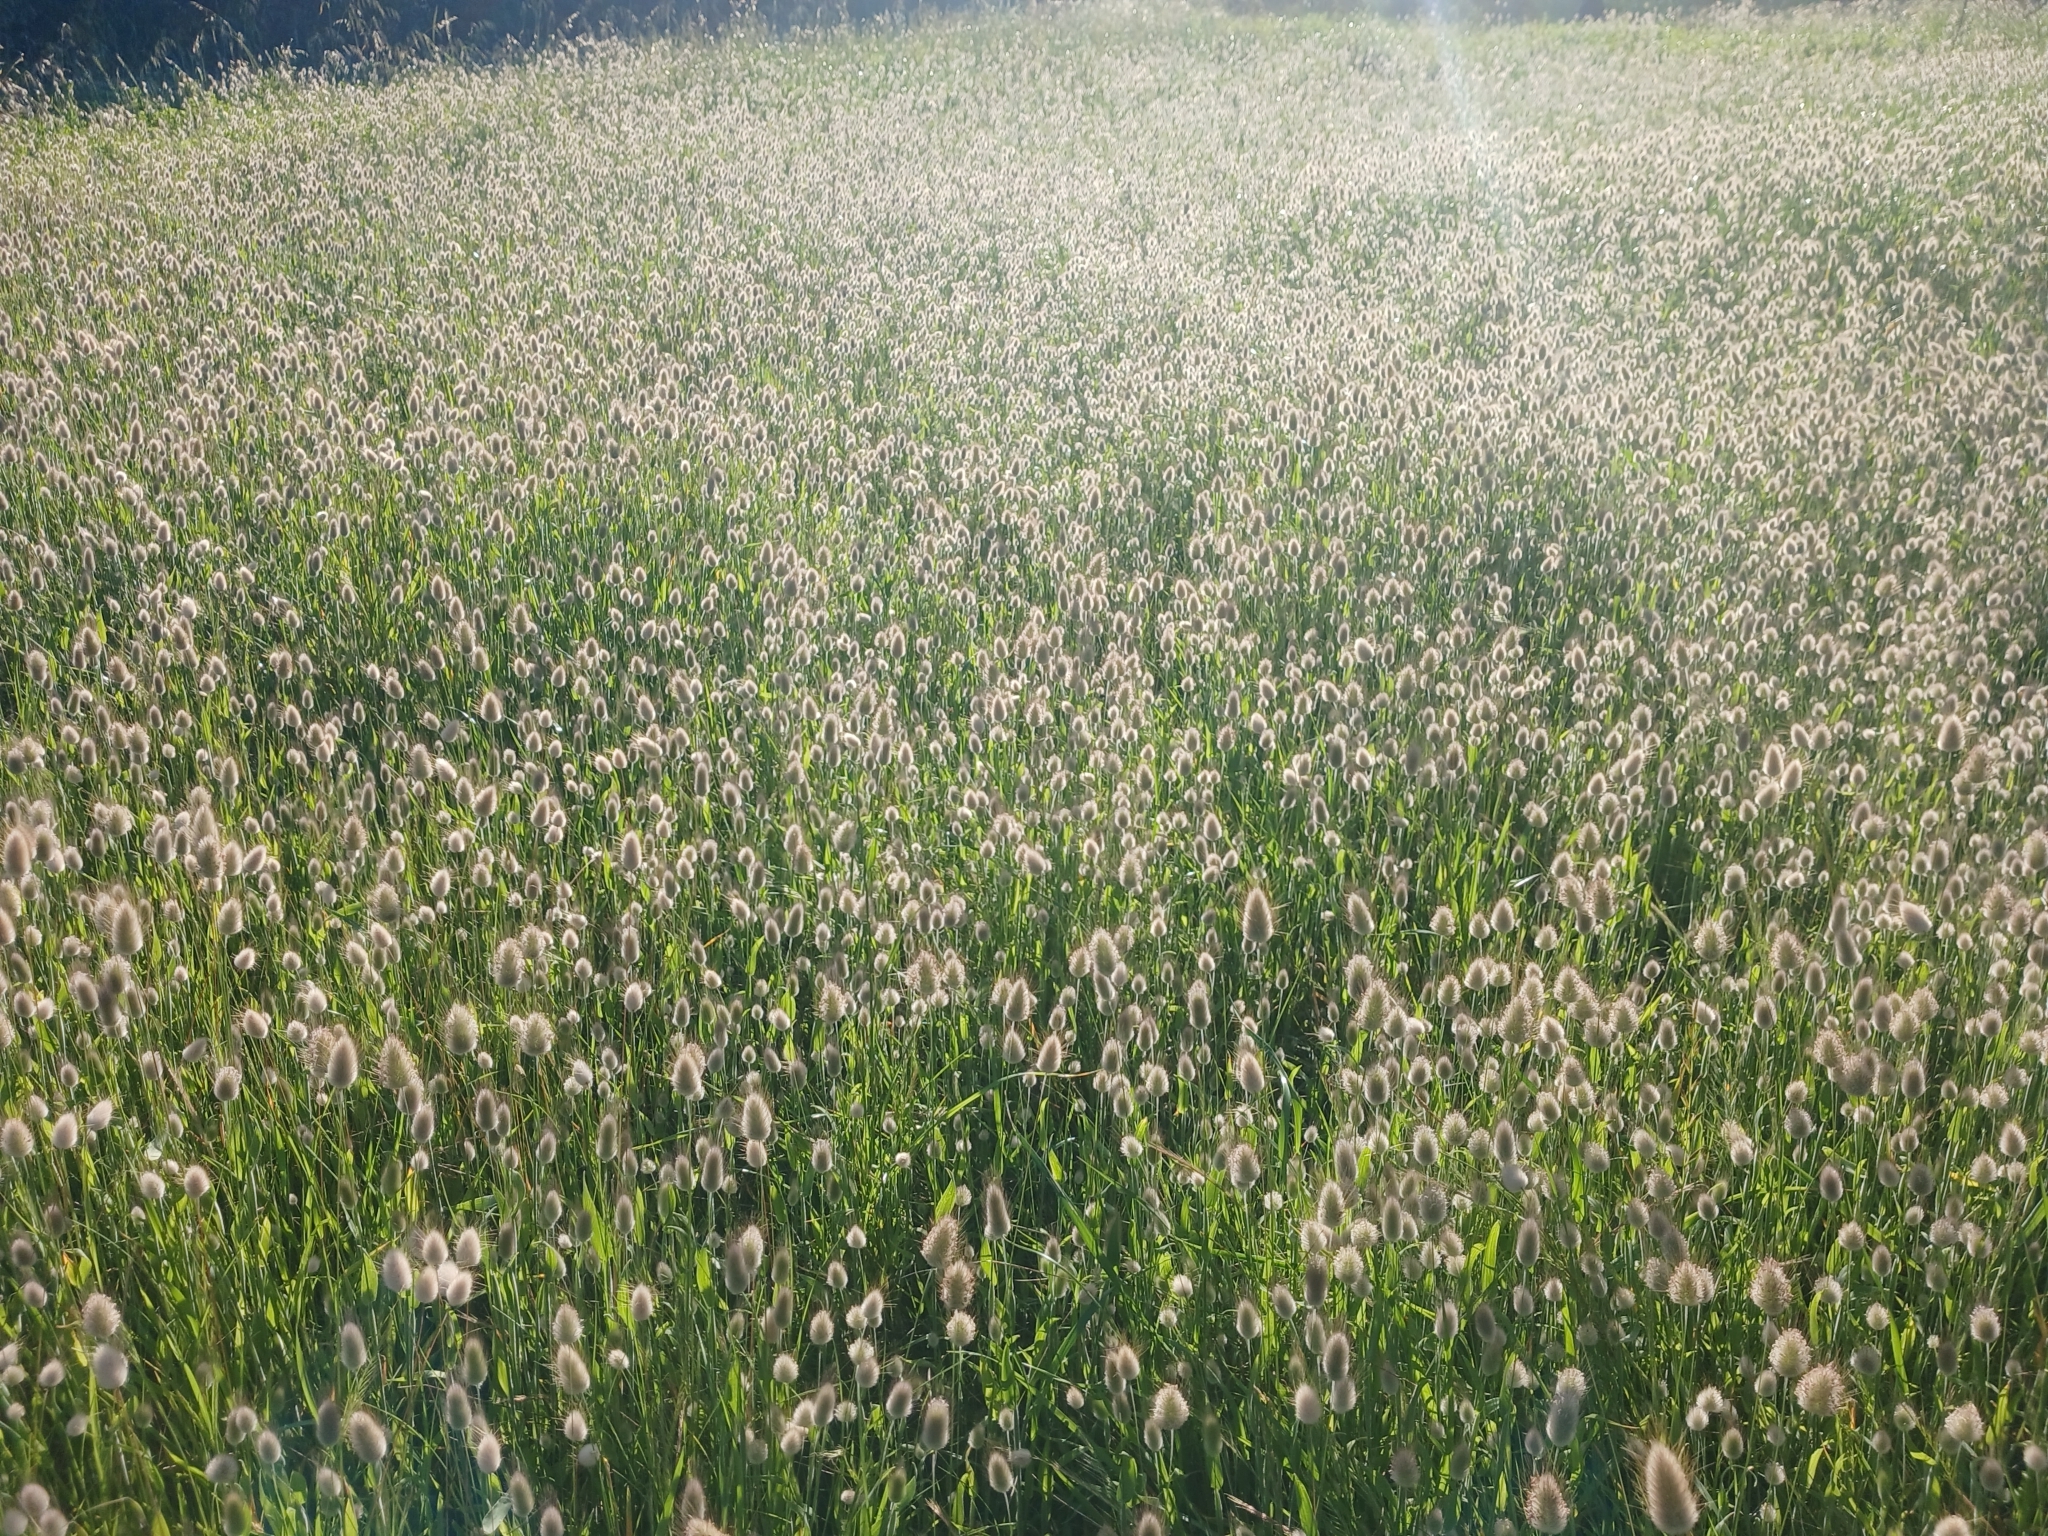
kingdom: Plantae
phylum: Tracheophyta
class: Liliopsida
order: Poales
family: Poaceae
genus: Lagurus
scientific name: Lagurus ovatus
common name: Hare's-tail
